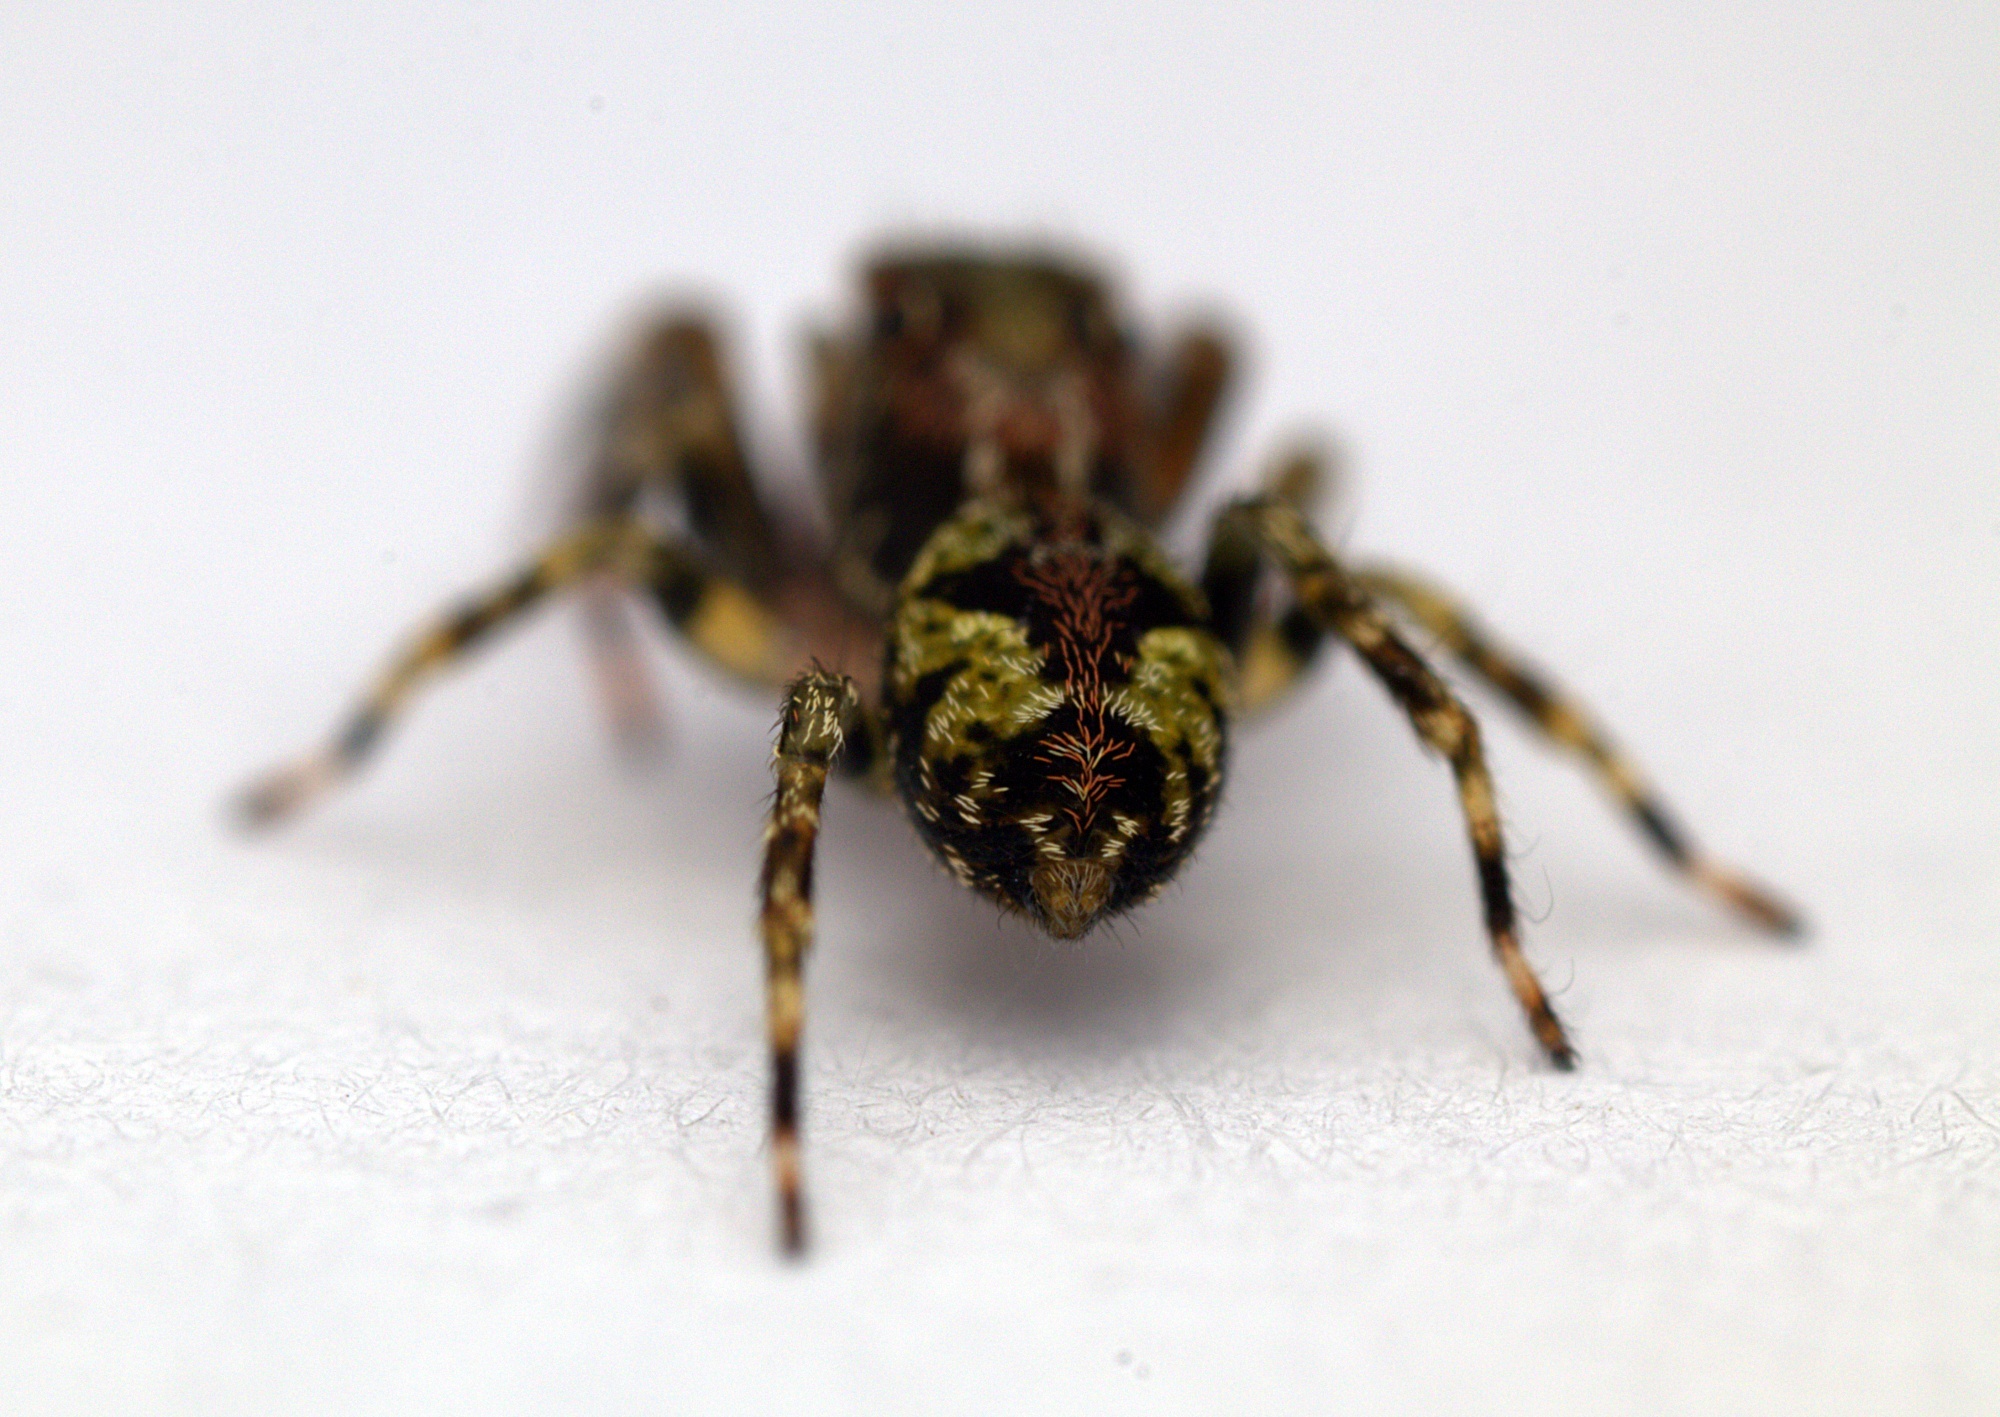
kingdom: Animalia
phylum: Arthropoda
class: Arachnida
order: Araneae
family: Salticidae
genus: Hinewaia
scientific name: Hinewaia embolica
